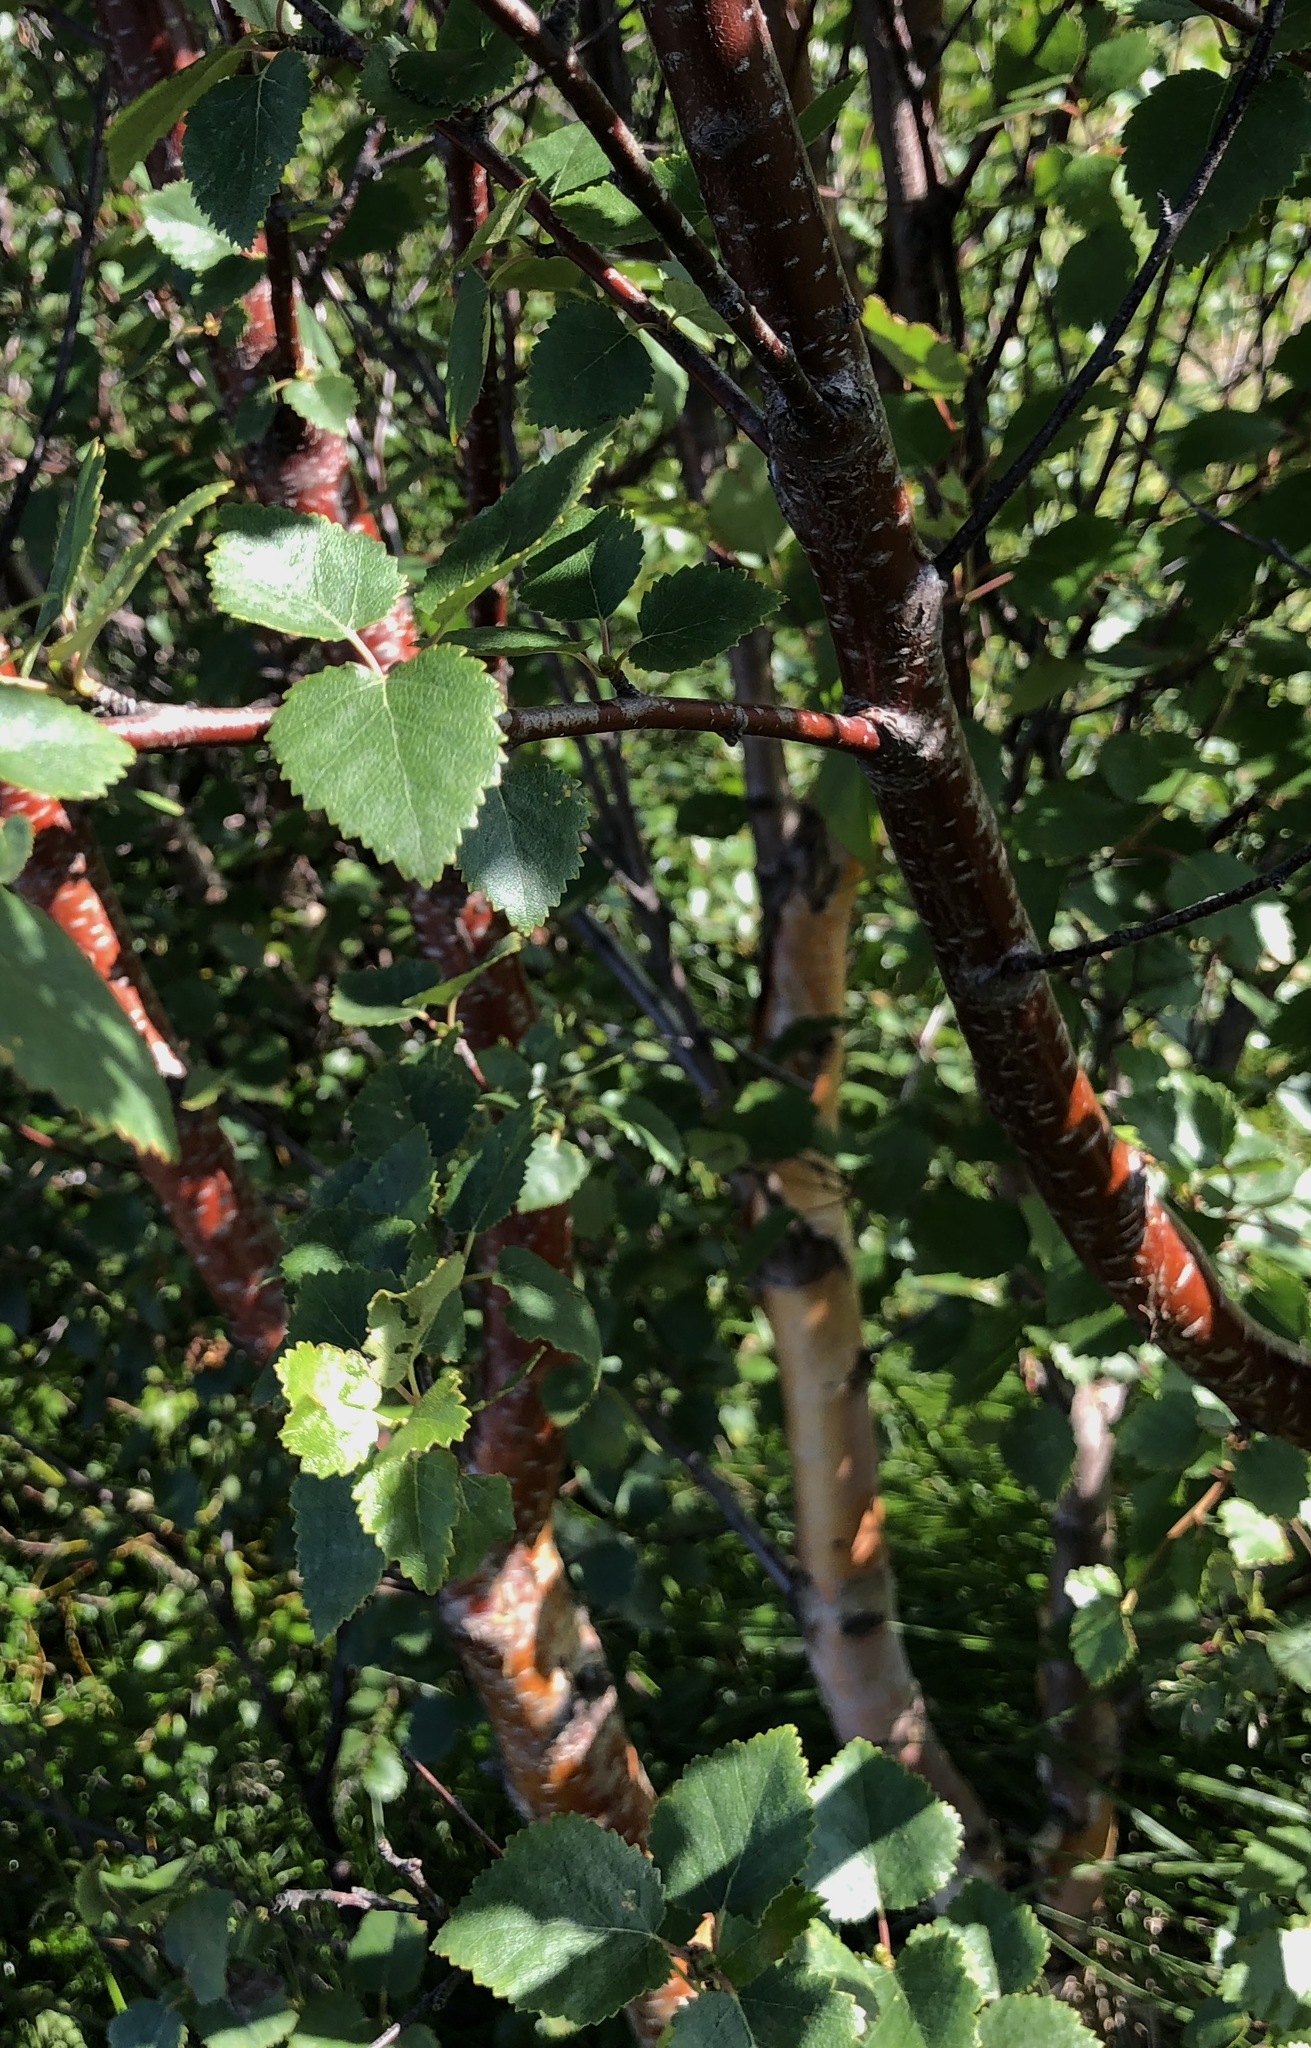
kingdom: Plantae
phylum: Tracheophyta
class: Magnoliopsida
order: Fagales
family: Betulaceae
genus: Betula
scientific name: Betula pubescens
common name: Downy birch
